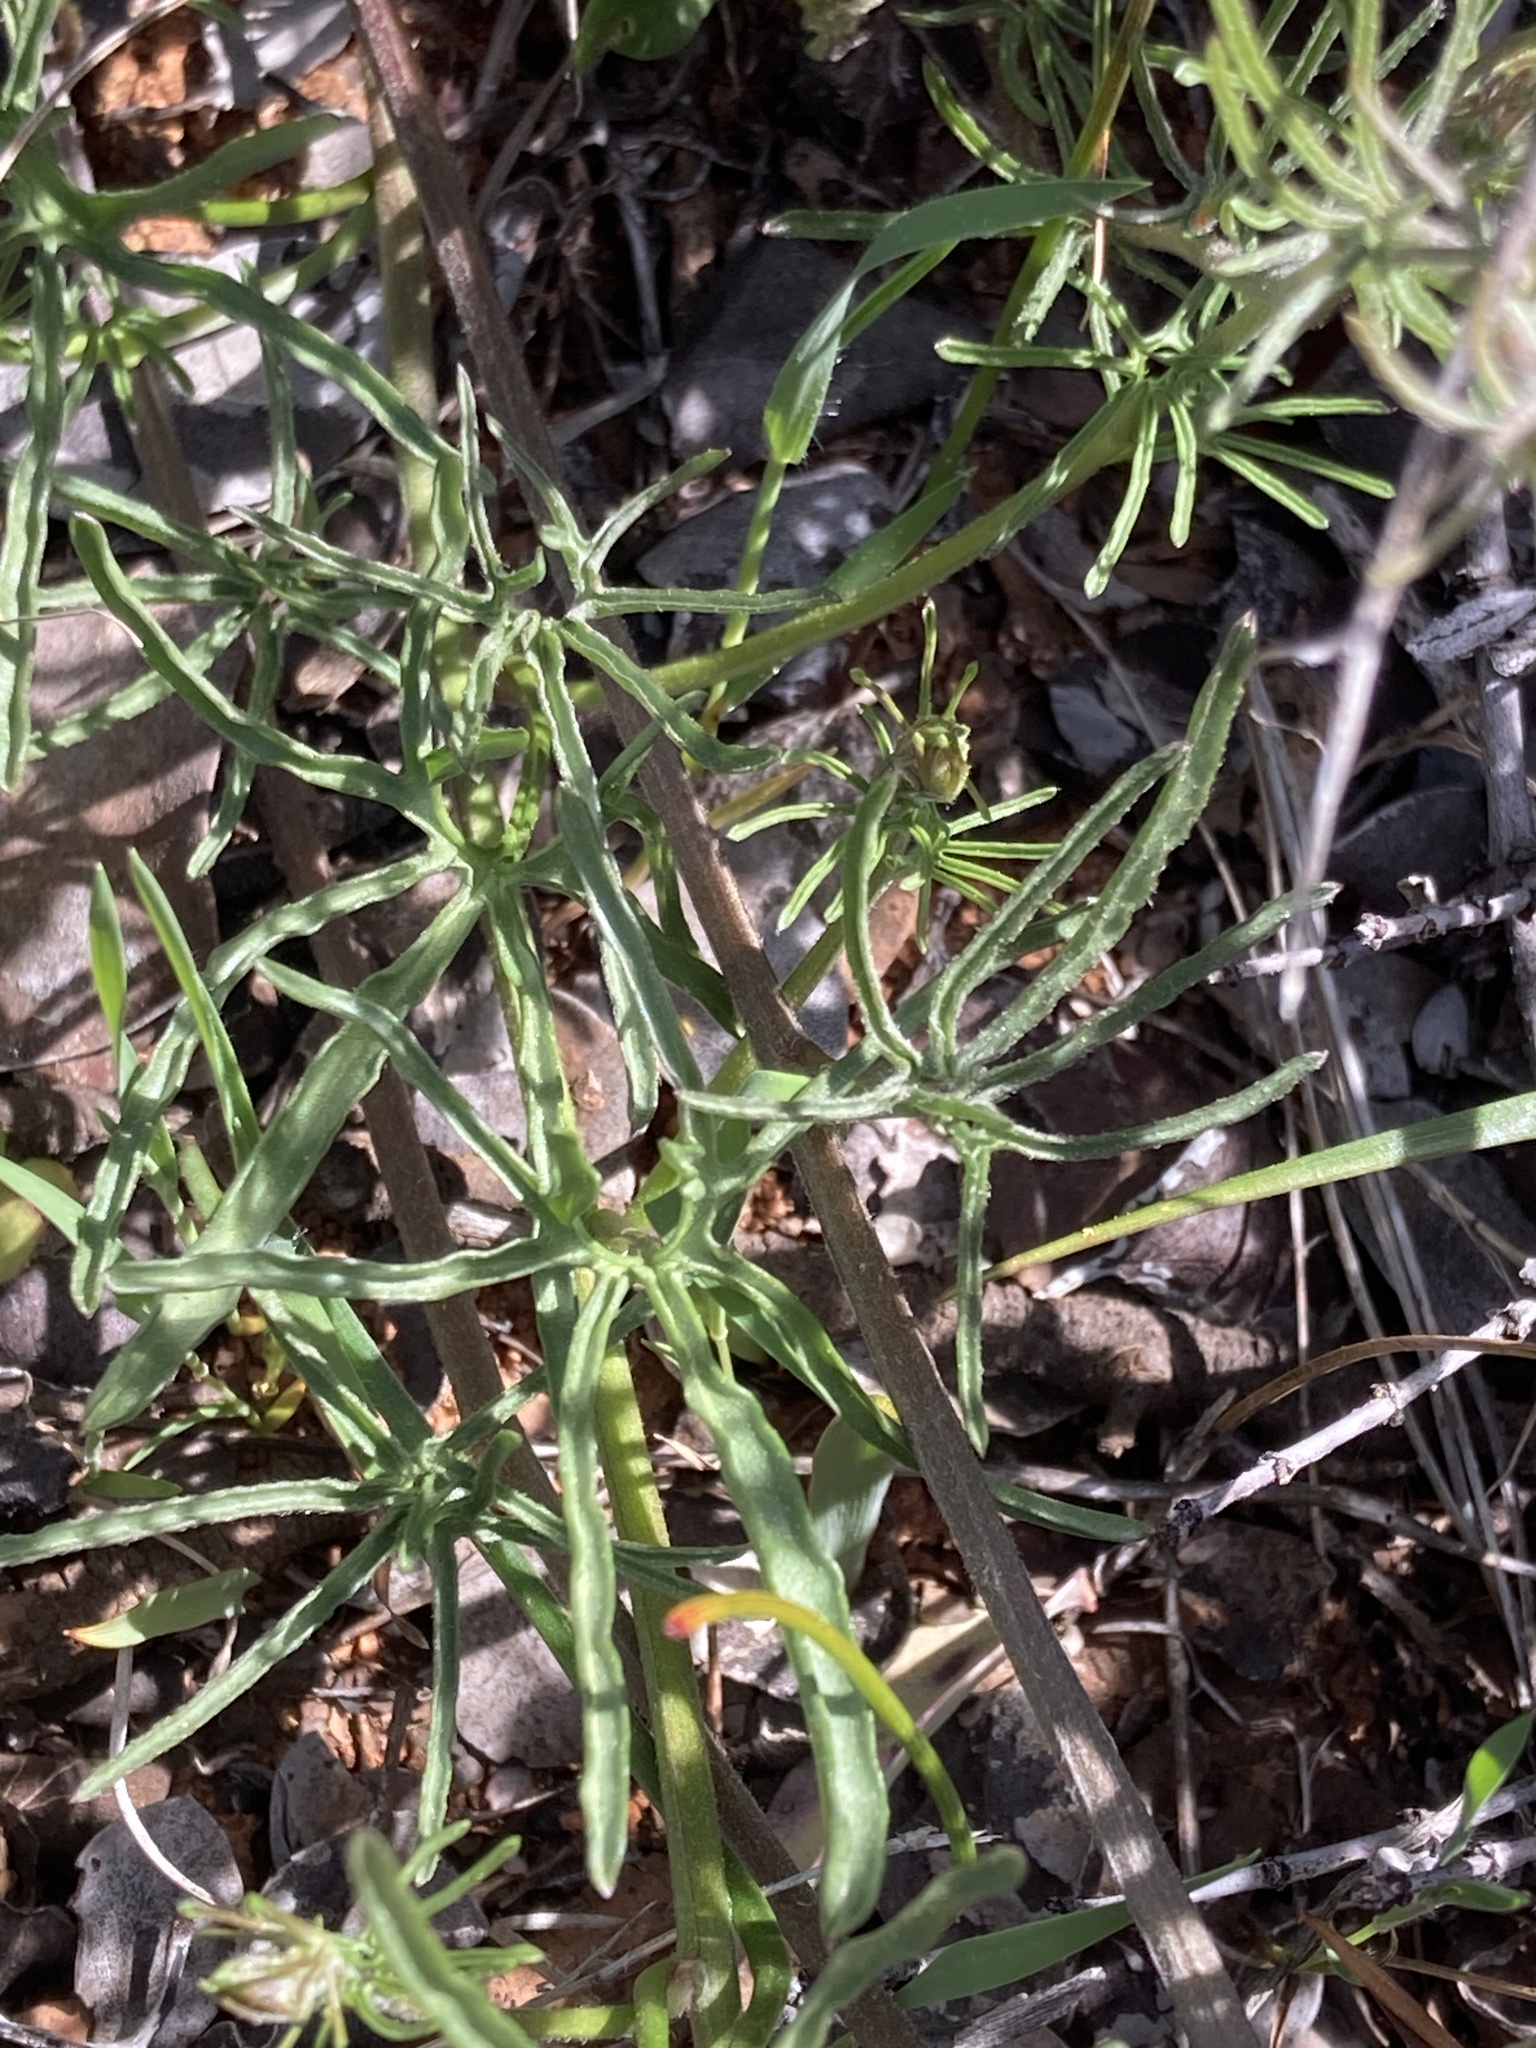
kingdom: Plantae
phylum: Tracheophyta
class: Magnoliopsida
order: Solanales
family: Convolvulaceae
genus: Calystegia
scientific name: Calystegia stebbinsii
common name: Stebbins's-morning-glory
